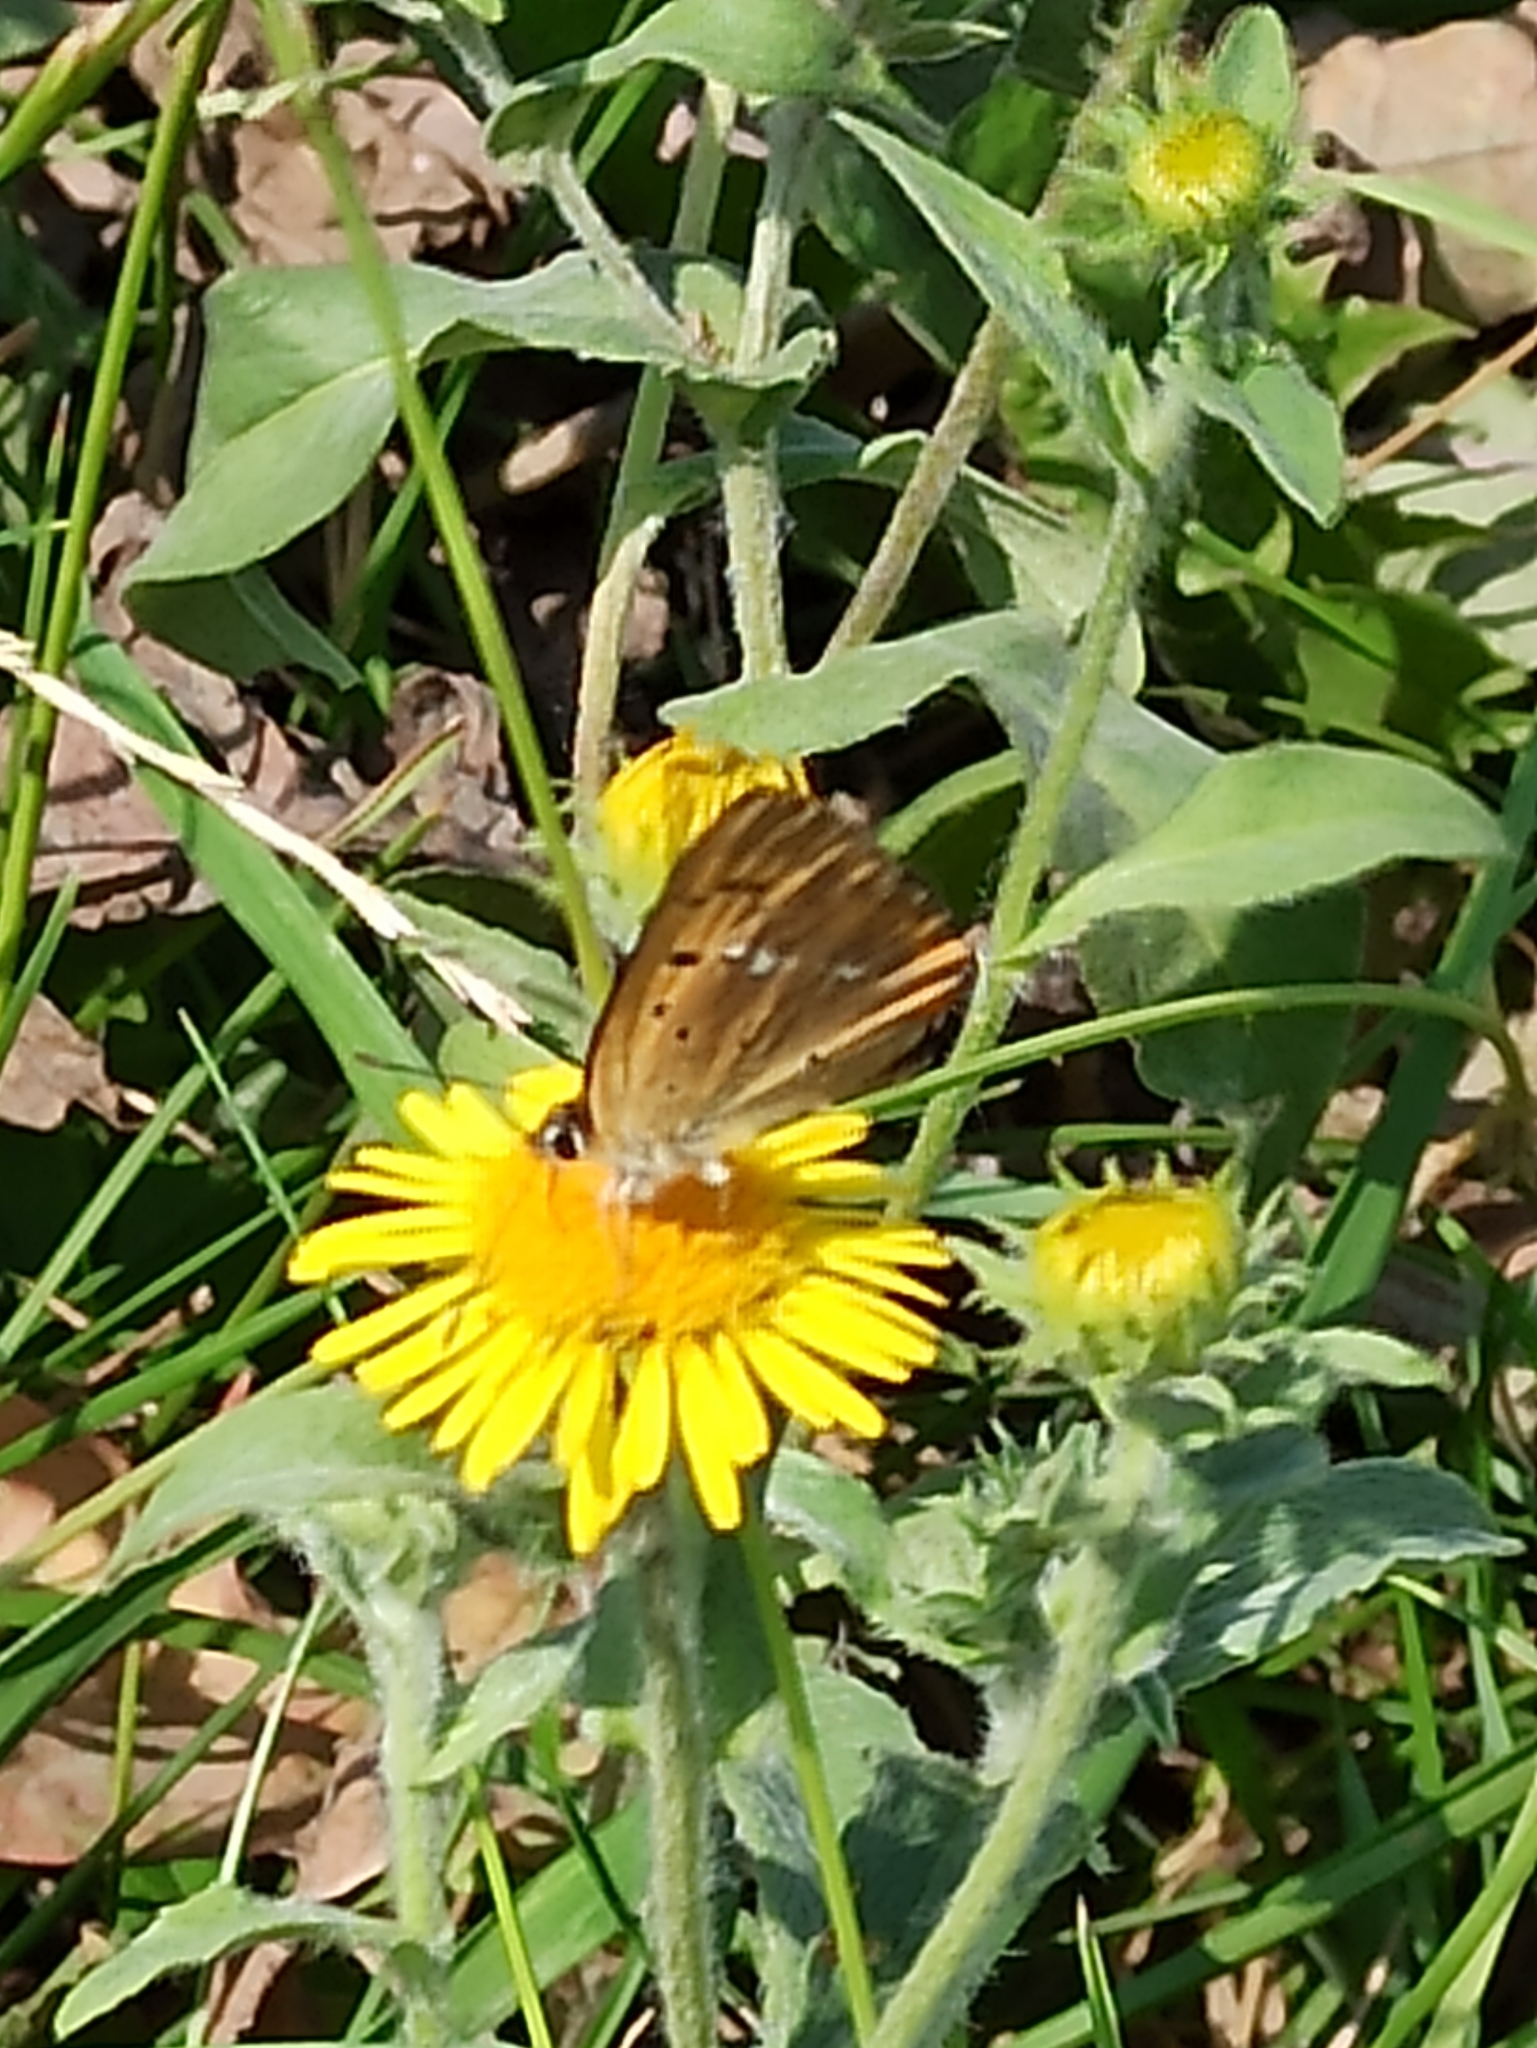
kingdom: Animalia
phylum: Arthropoda
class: Insecta
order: Lepidoptera
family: Lycaenidae
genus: Lycaena
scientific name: Lycaena virgaureae
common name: Scarce copper
